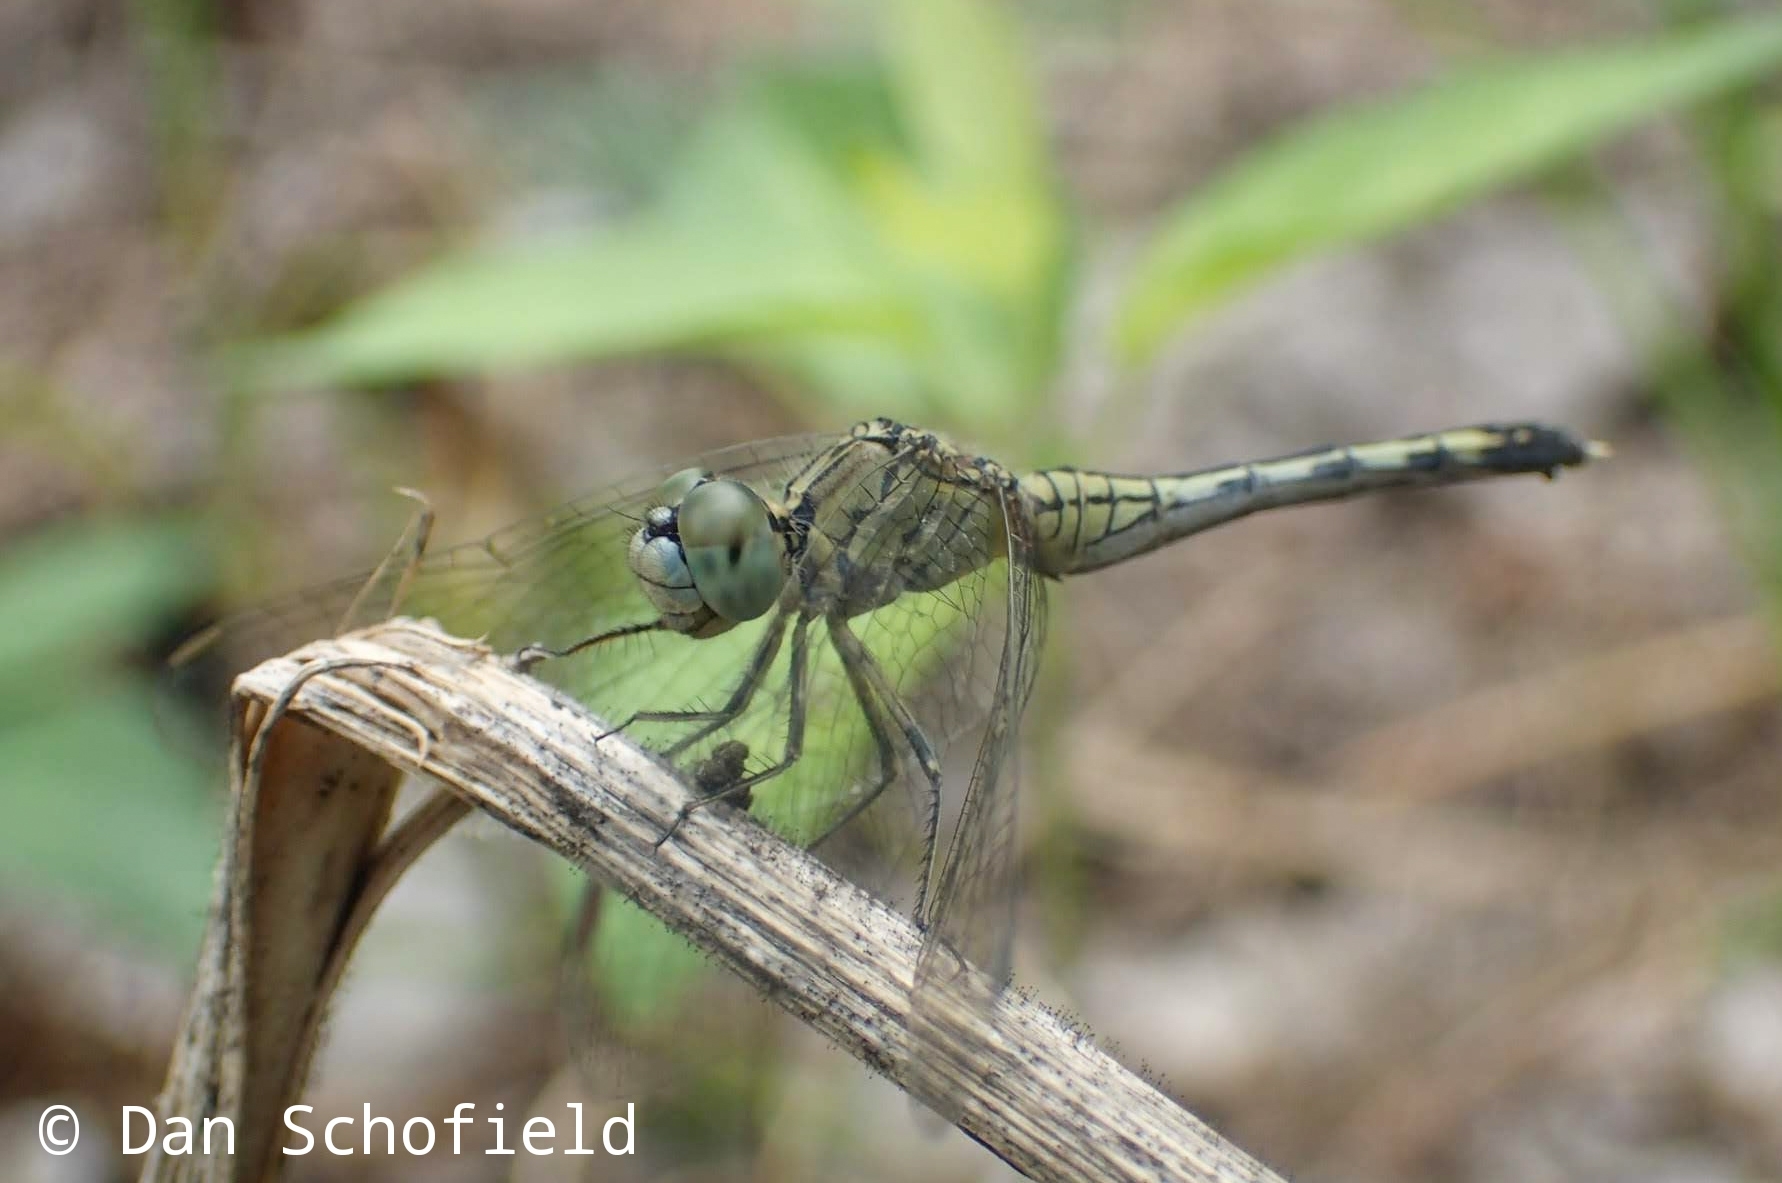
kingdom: Animalia
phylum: Arthropoda
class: Insecta
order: Odonata
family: Libellulidae
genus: Diplacodes
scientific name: Diplacodes trivialis
